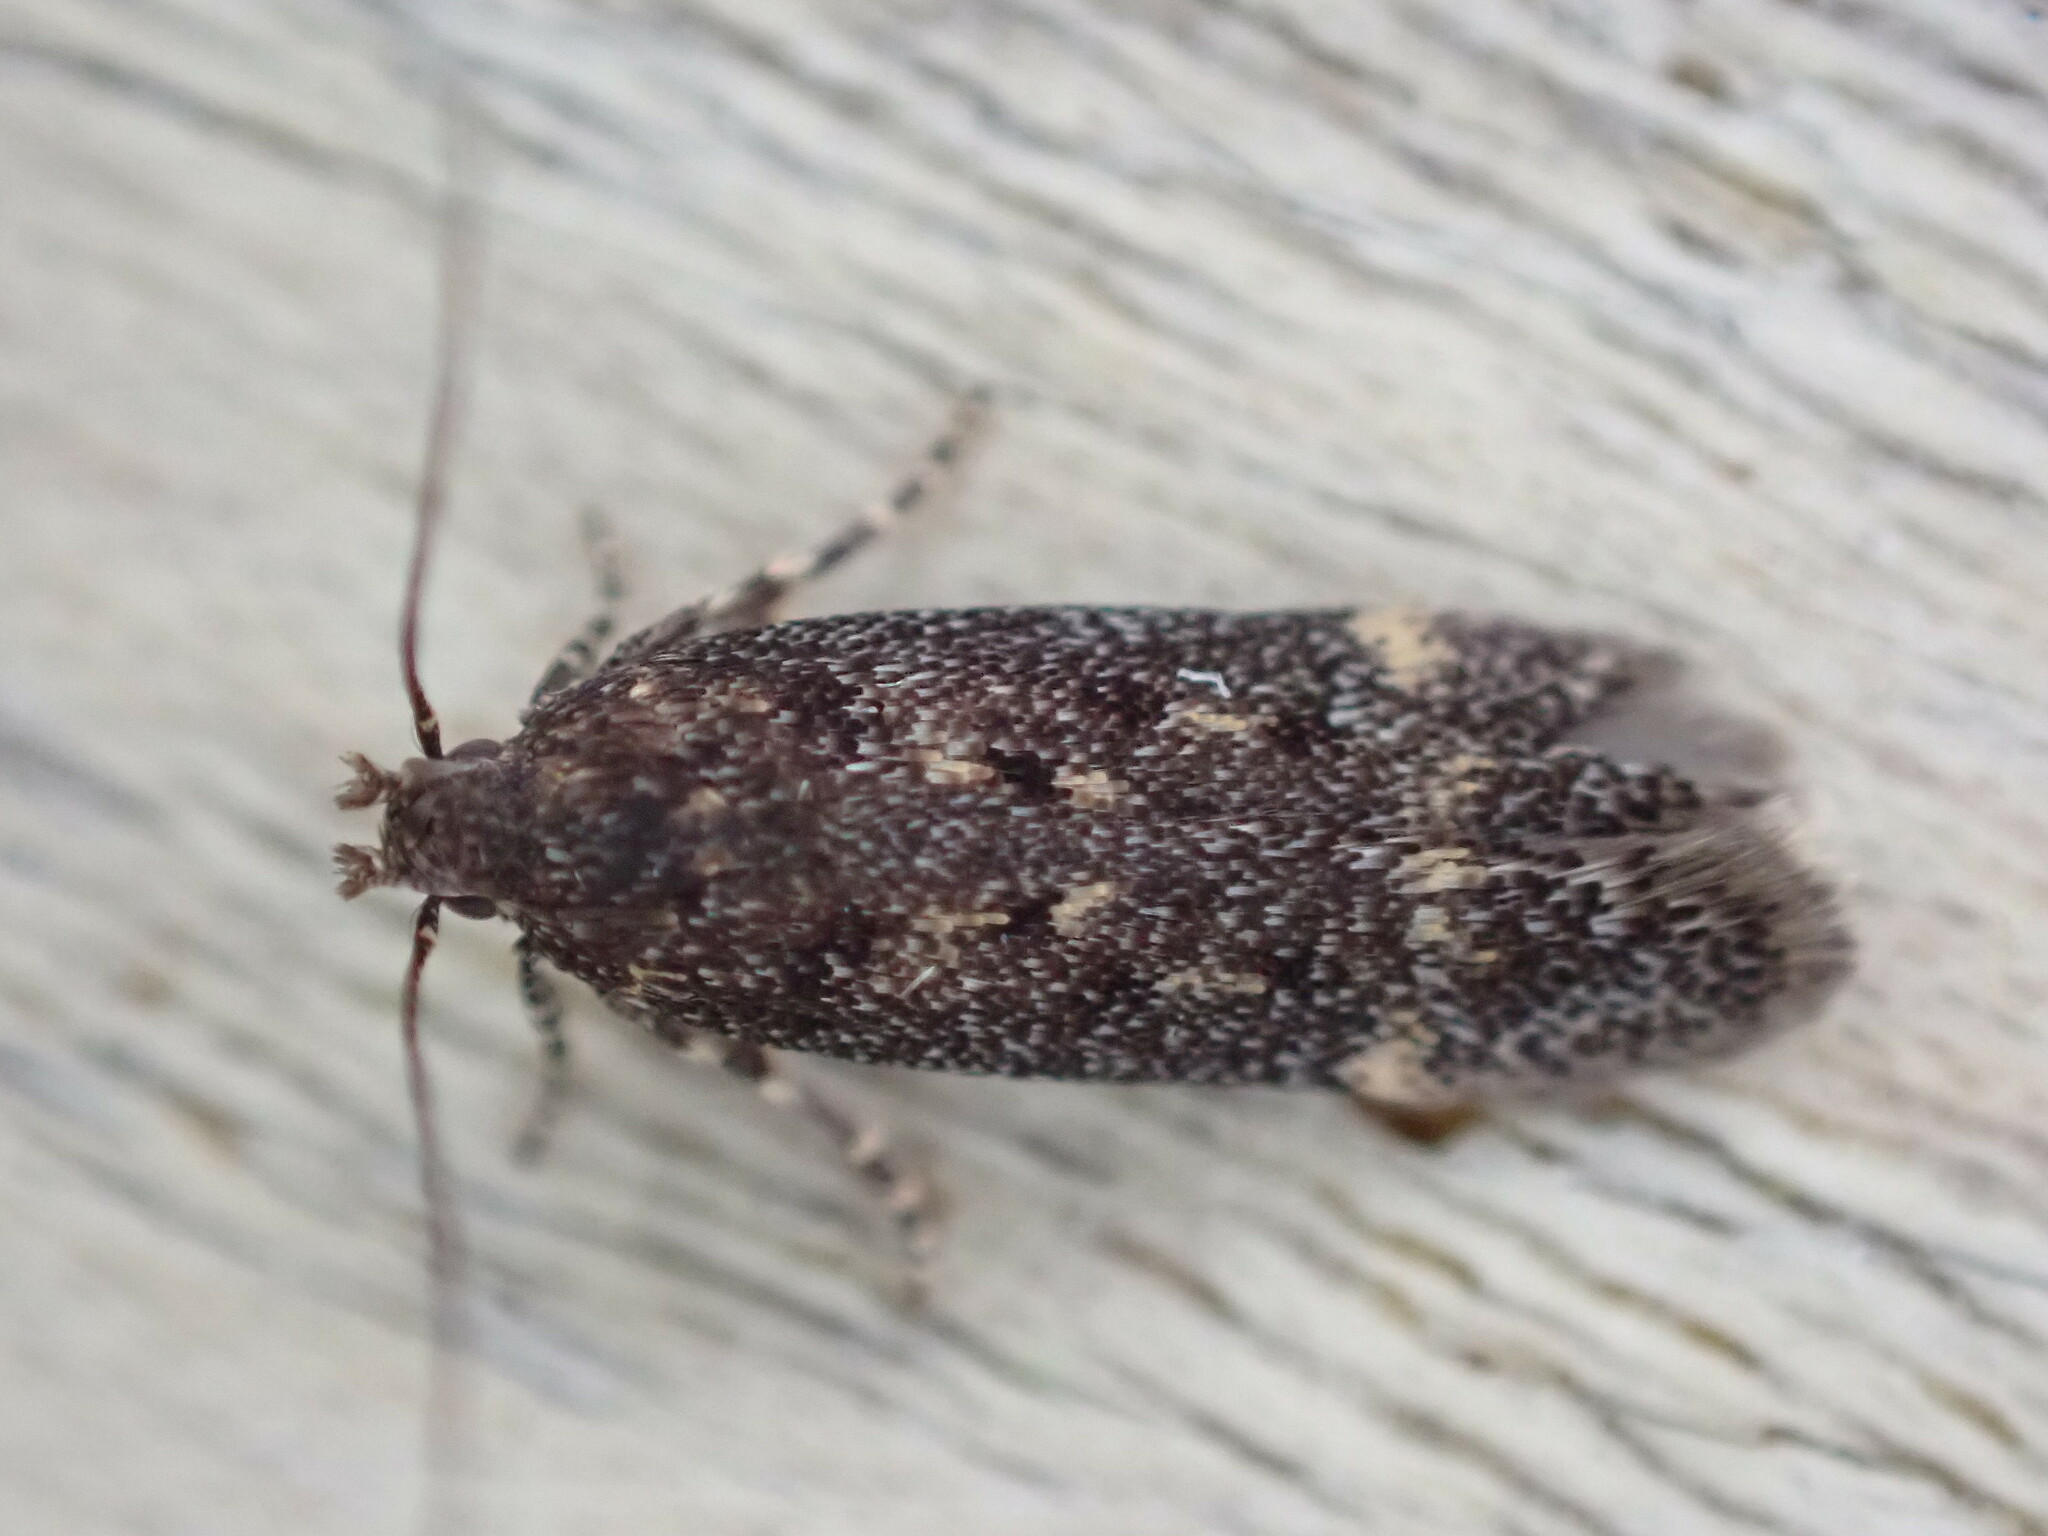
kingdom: Animalia
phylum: Arthropoda
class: Insecta
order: Lepidoptera
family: Gelechiidae
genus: Bryotropha
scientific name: Bryotropha affinis
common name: Dark groundling
